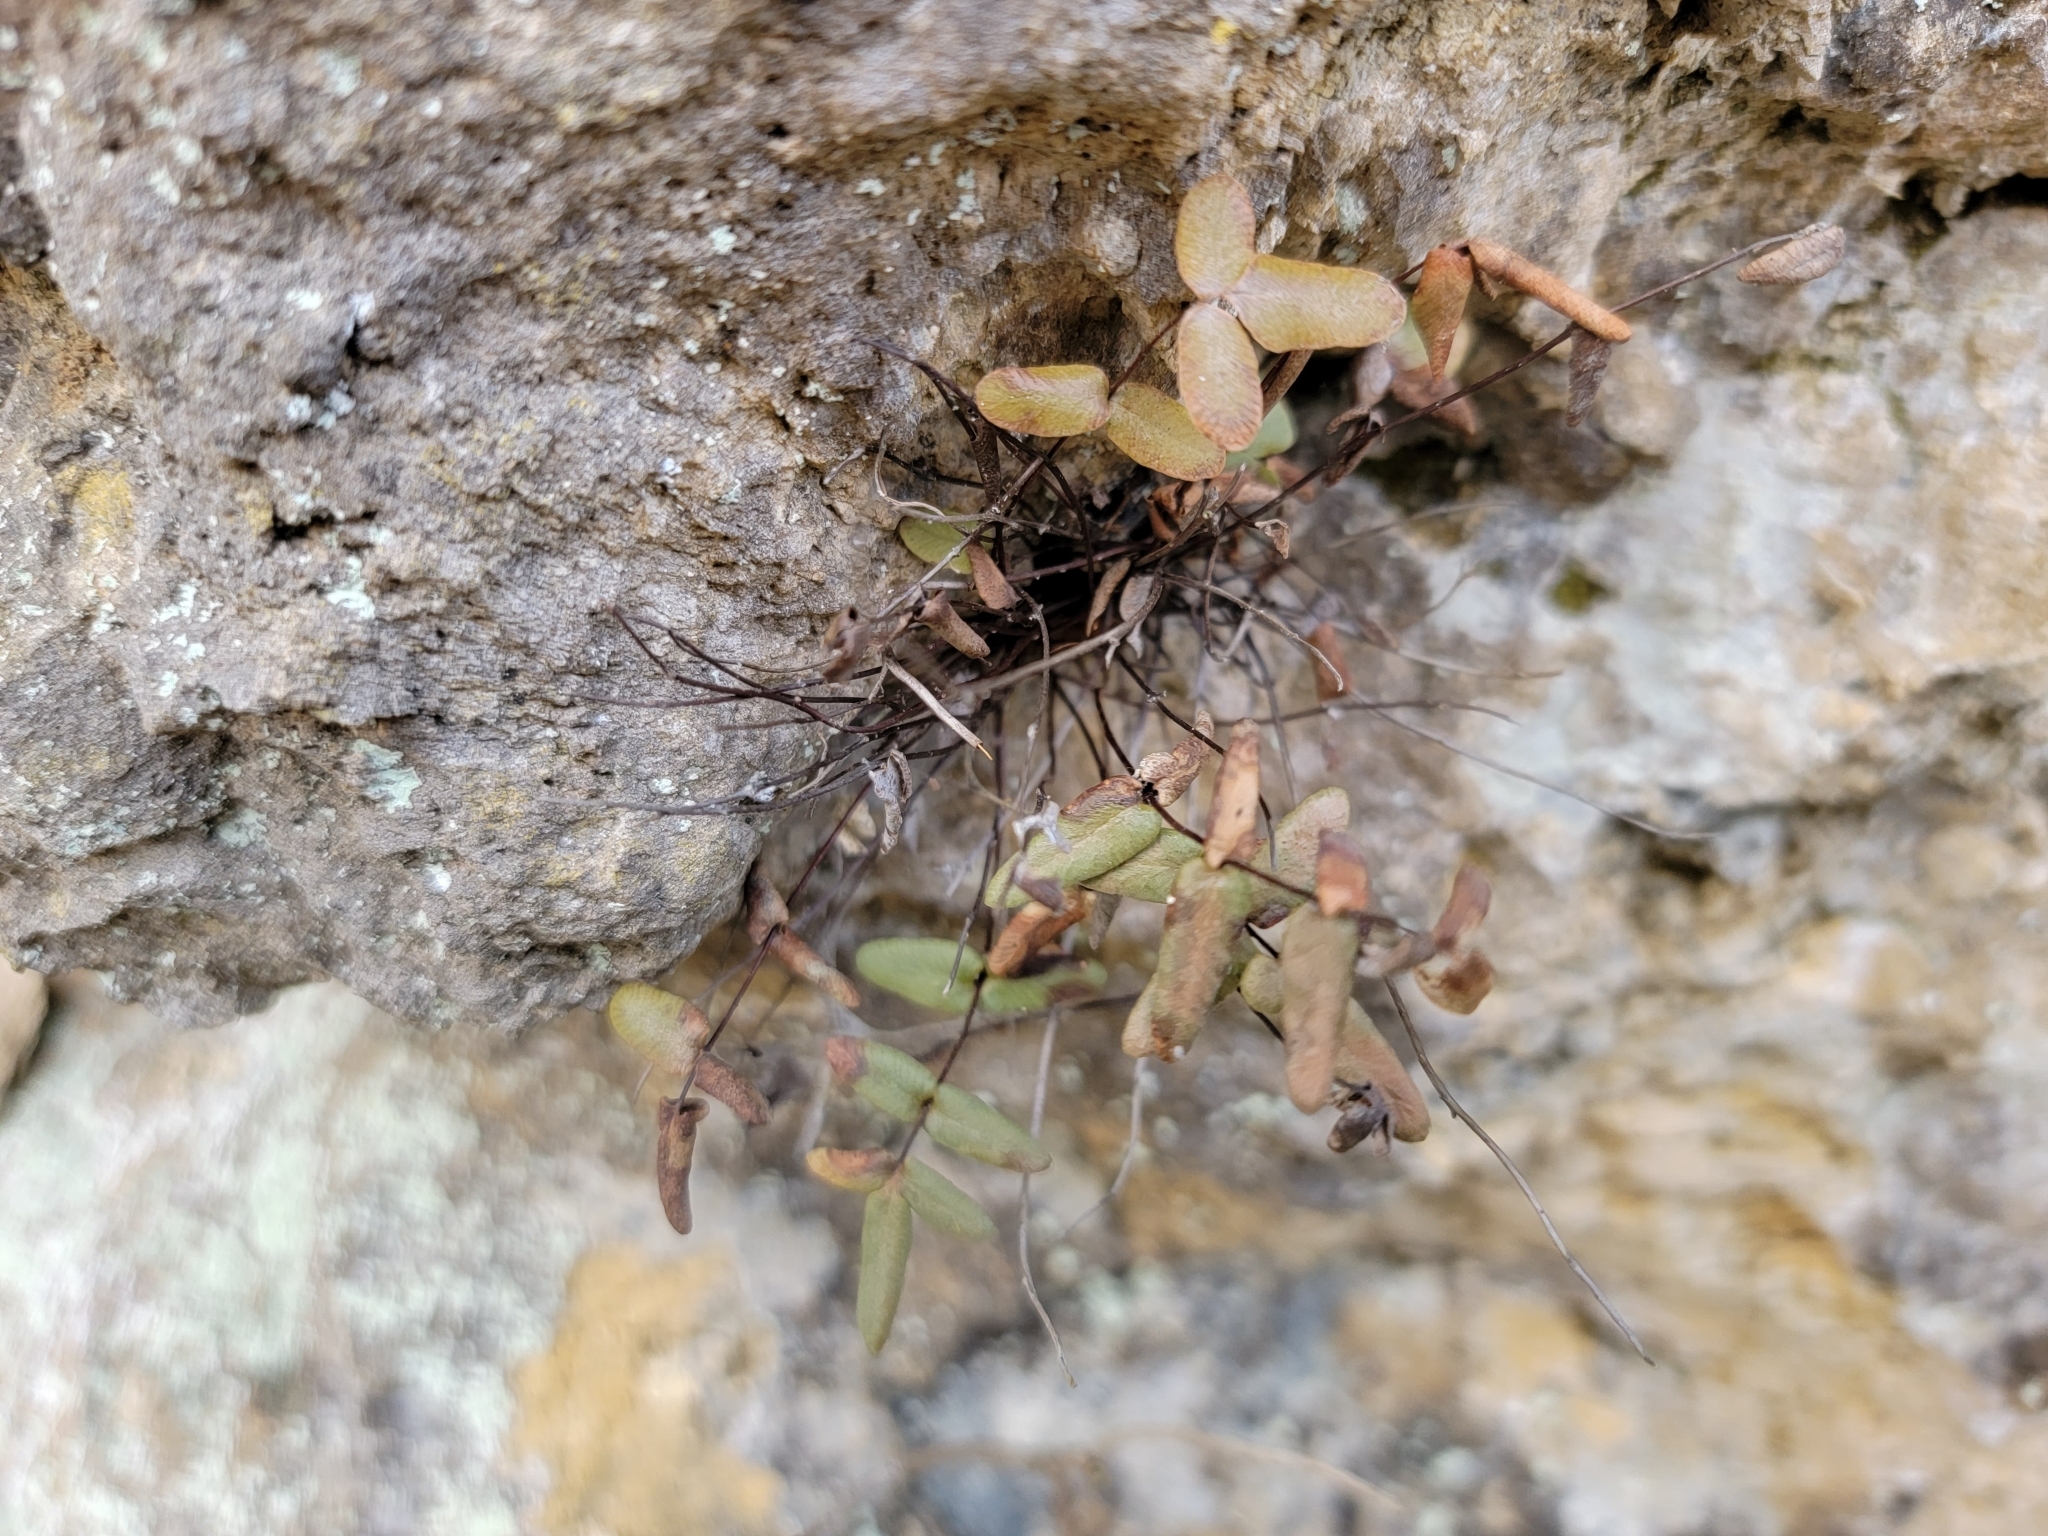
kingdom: Plantae
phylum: Tracheophyta
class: Polypodiopsida
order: Polypodiales
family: Pteridaceae
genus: Pellaea
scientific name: Pellaea glabella
